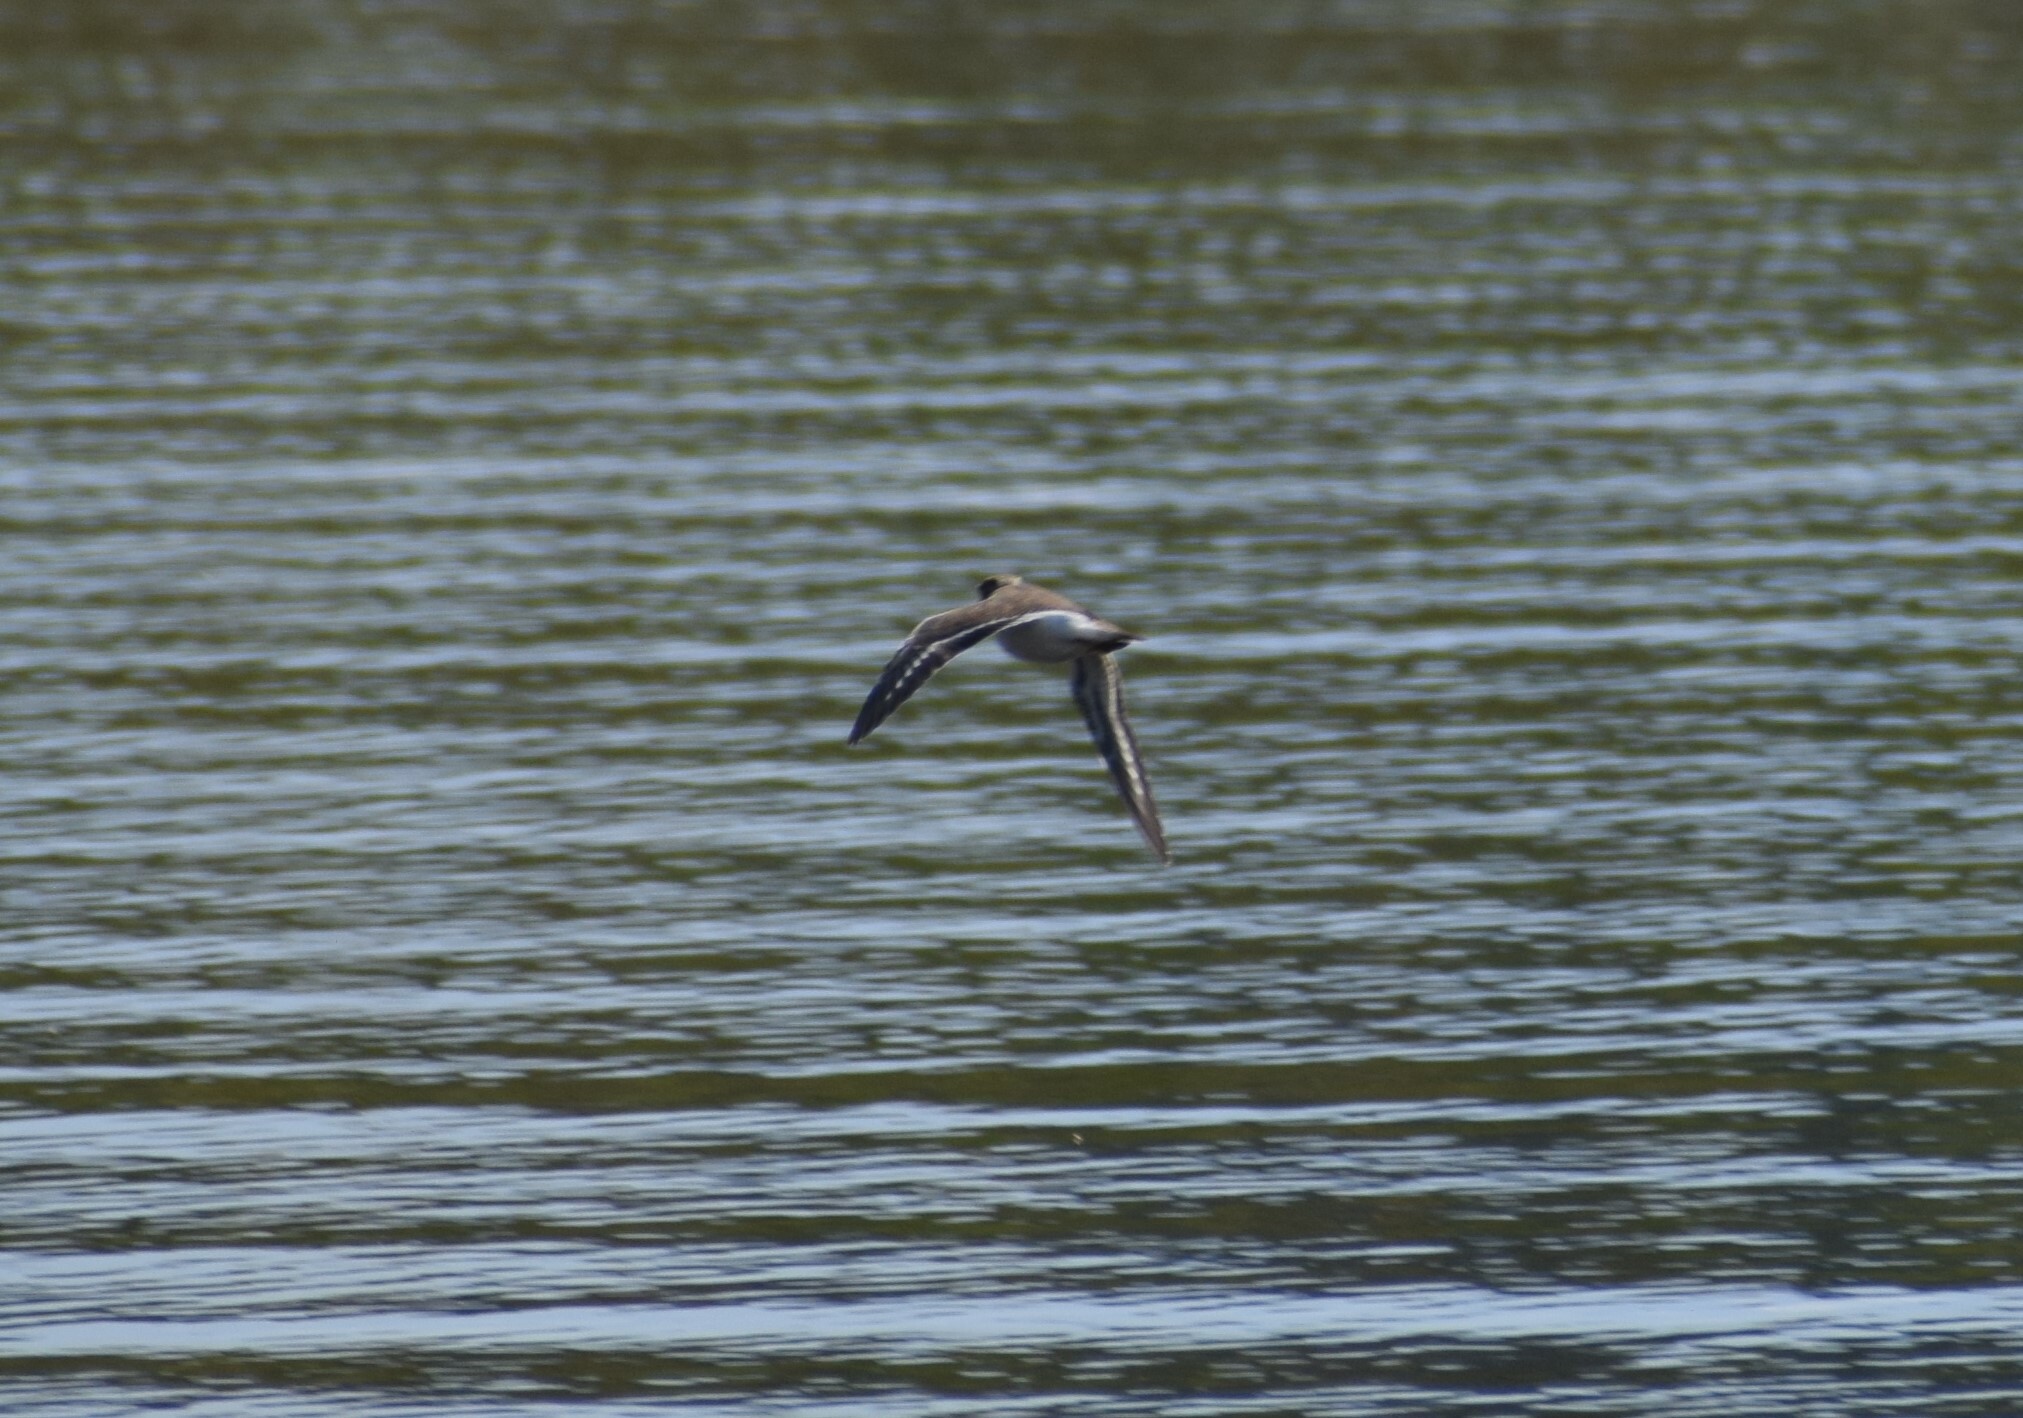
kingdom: Animalia
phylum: Chordata
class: Aves
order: Charadriiformes
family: Scolopacidae
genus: Actitis
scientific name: Actitis hypoleucos
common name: Common sandpiper
